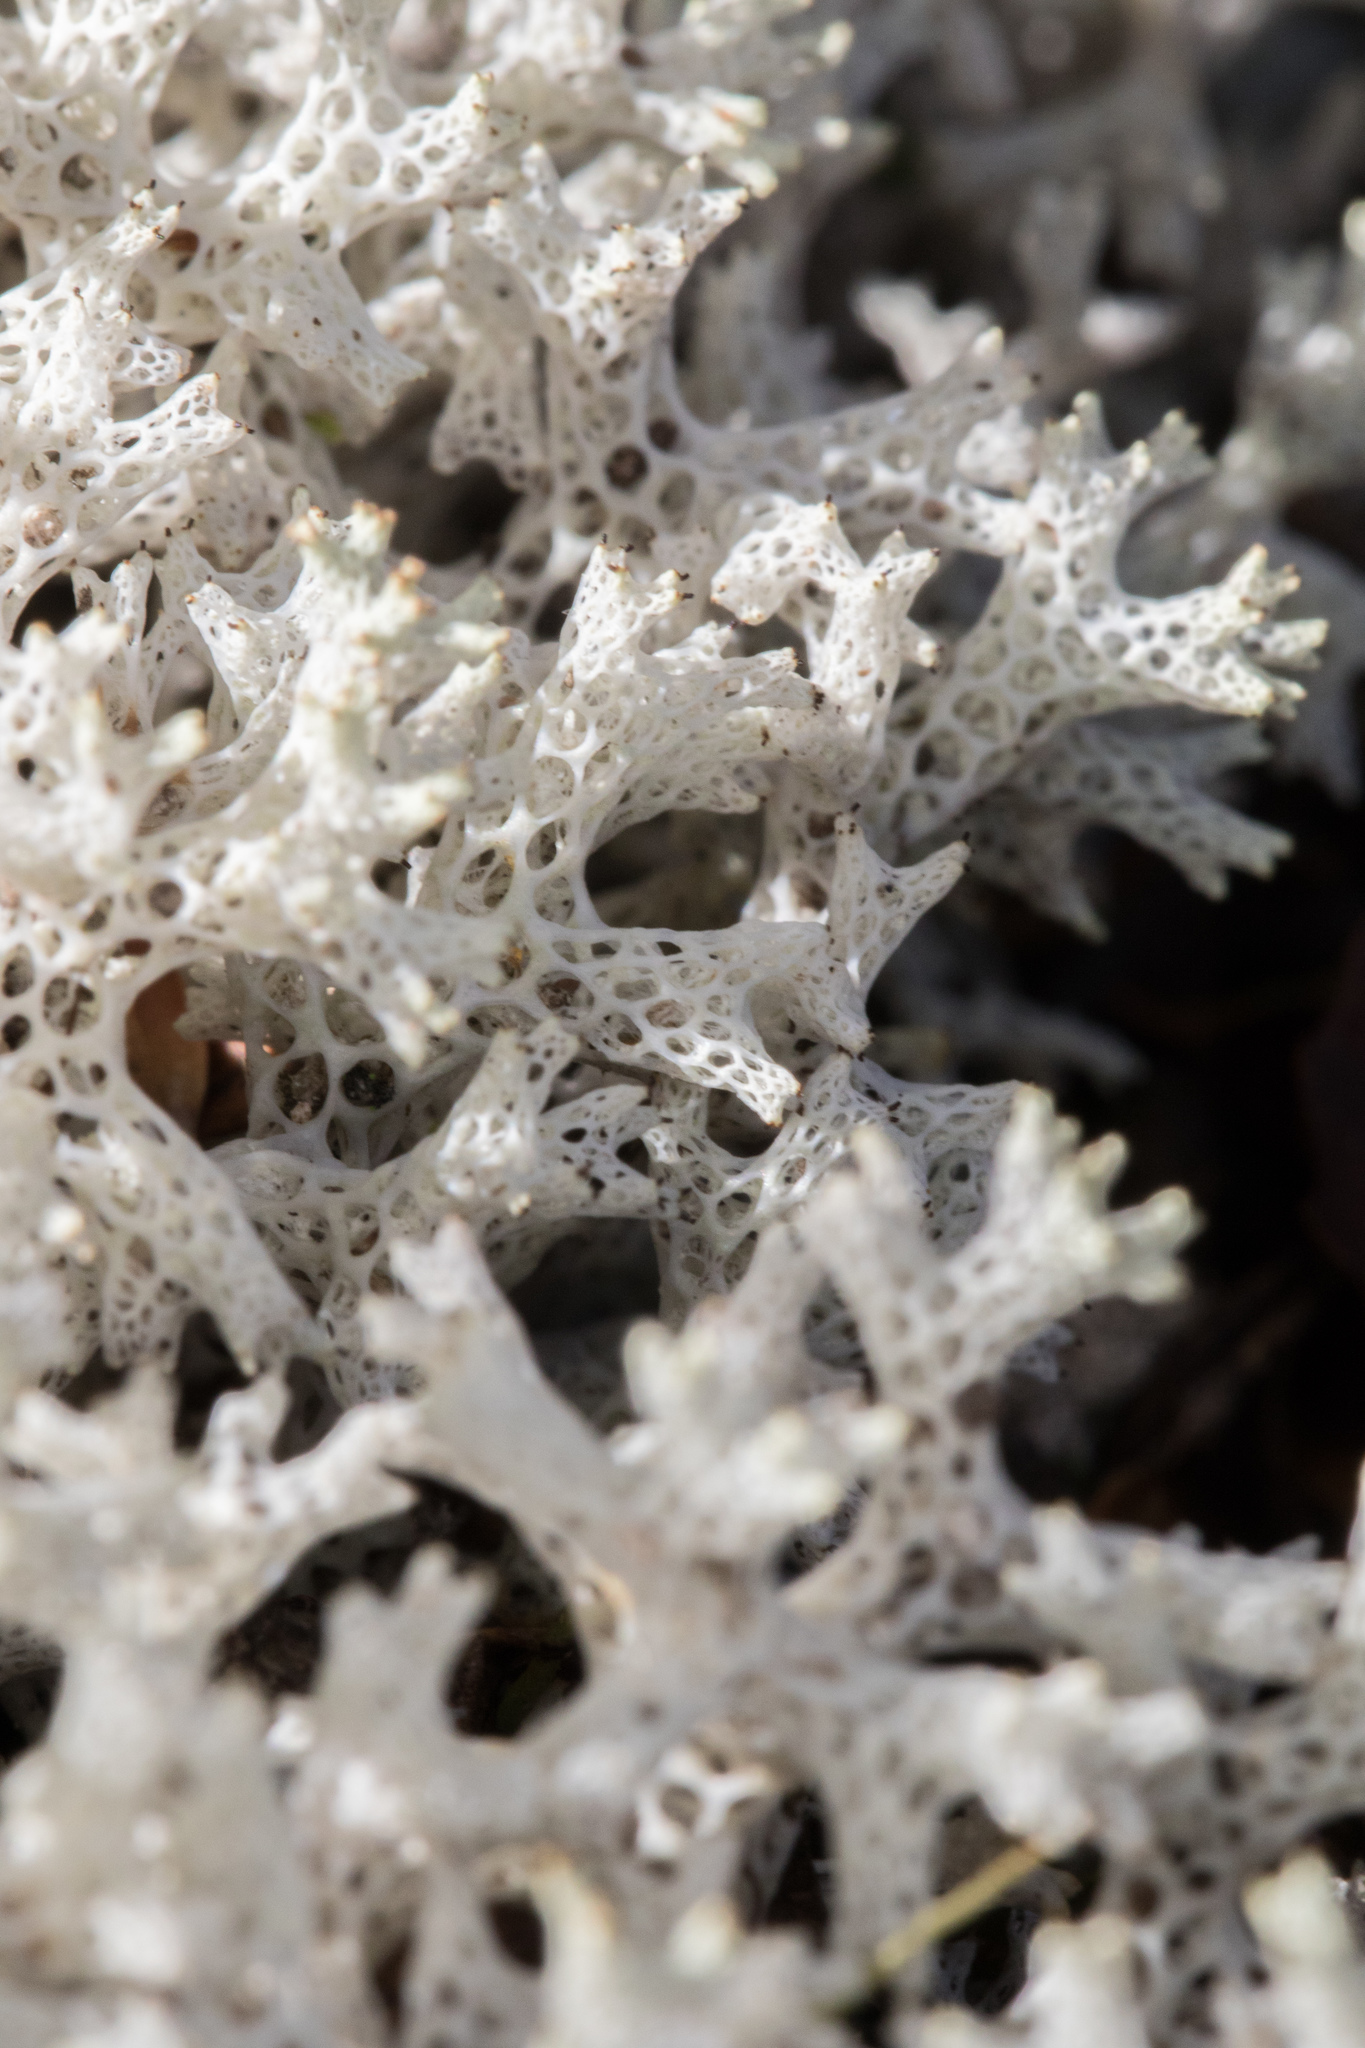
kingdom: Fungi
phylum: Ascomycota
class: Lecanoromycetes
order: Lecanorales
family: Cladoniaceae
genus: Pulchrocladia
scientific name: Pulchrocladia retipora
